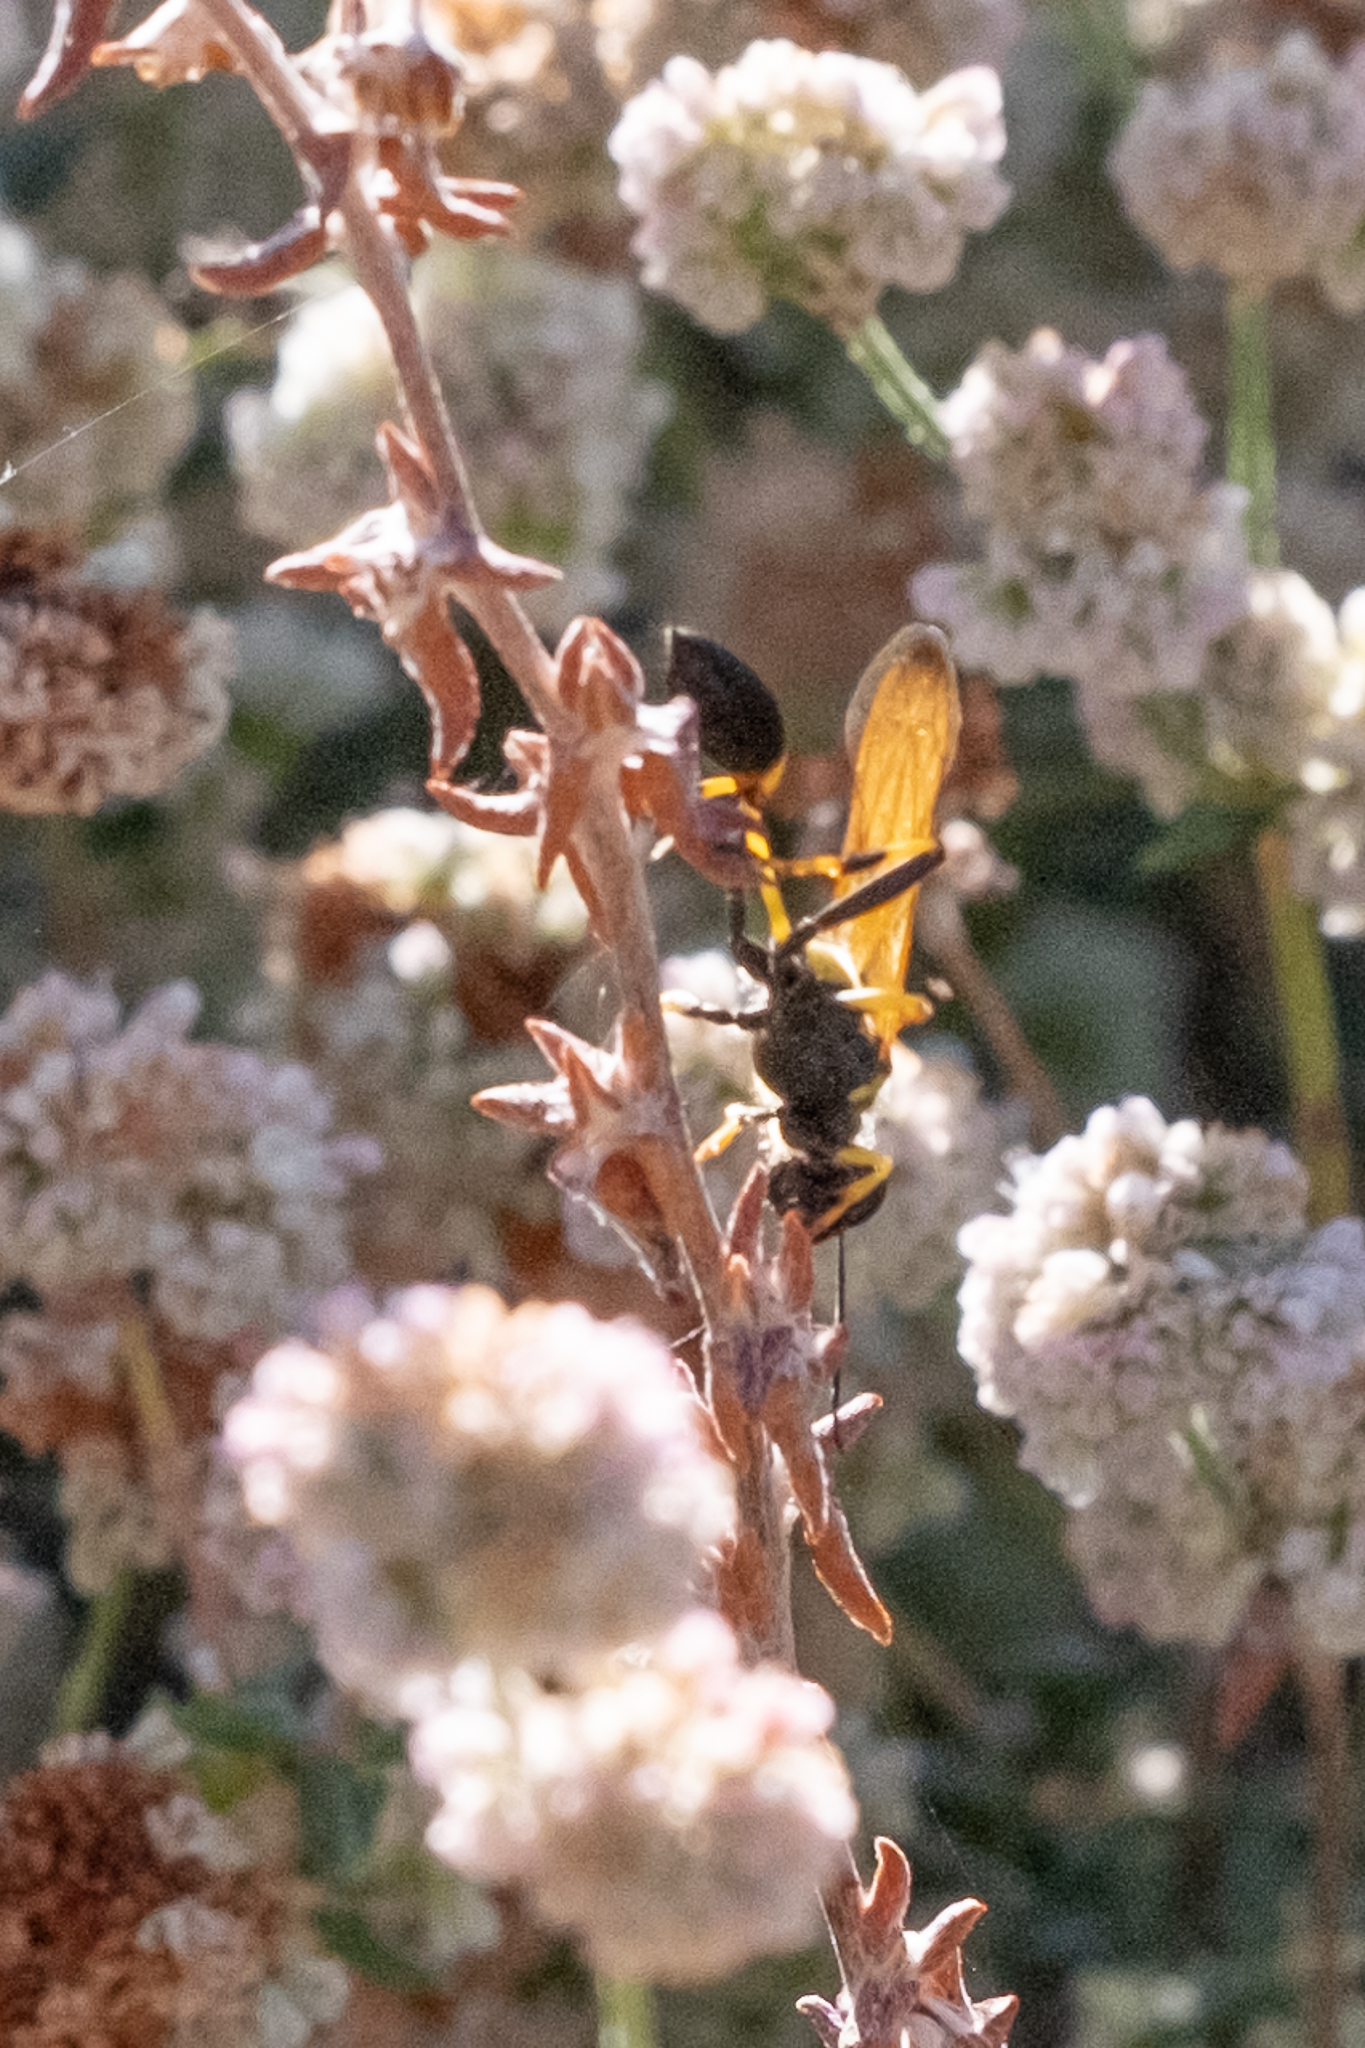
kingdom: Animalia
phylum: Arthropoda
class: Insecta
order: Hymenoptera
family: Sphecidae
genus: Sceliphron
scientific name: Sceliphron caementarium
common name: Mud dauber
